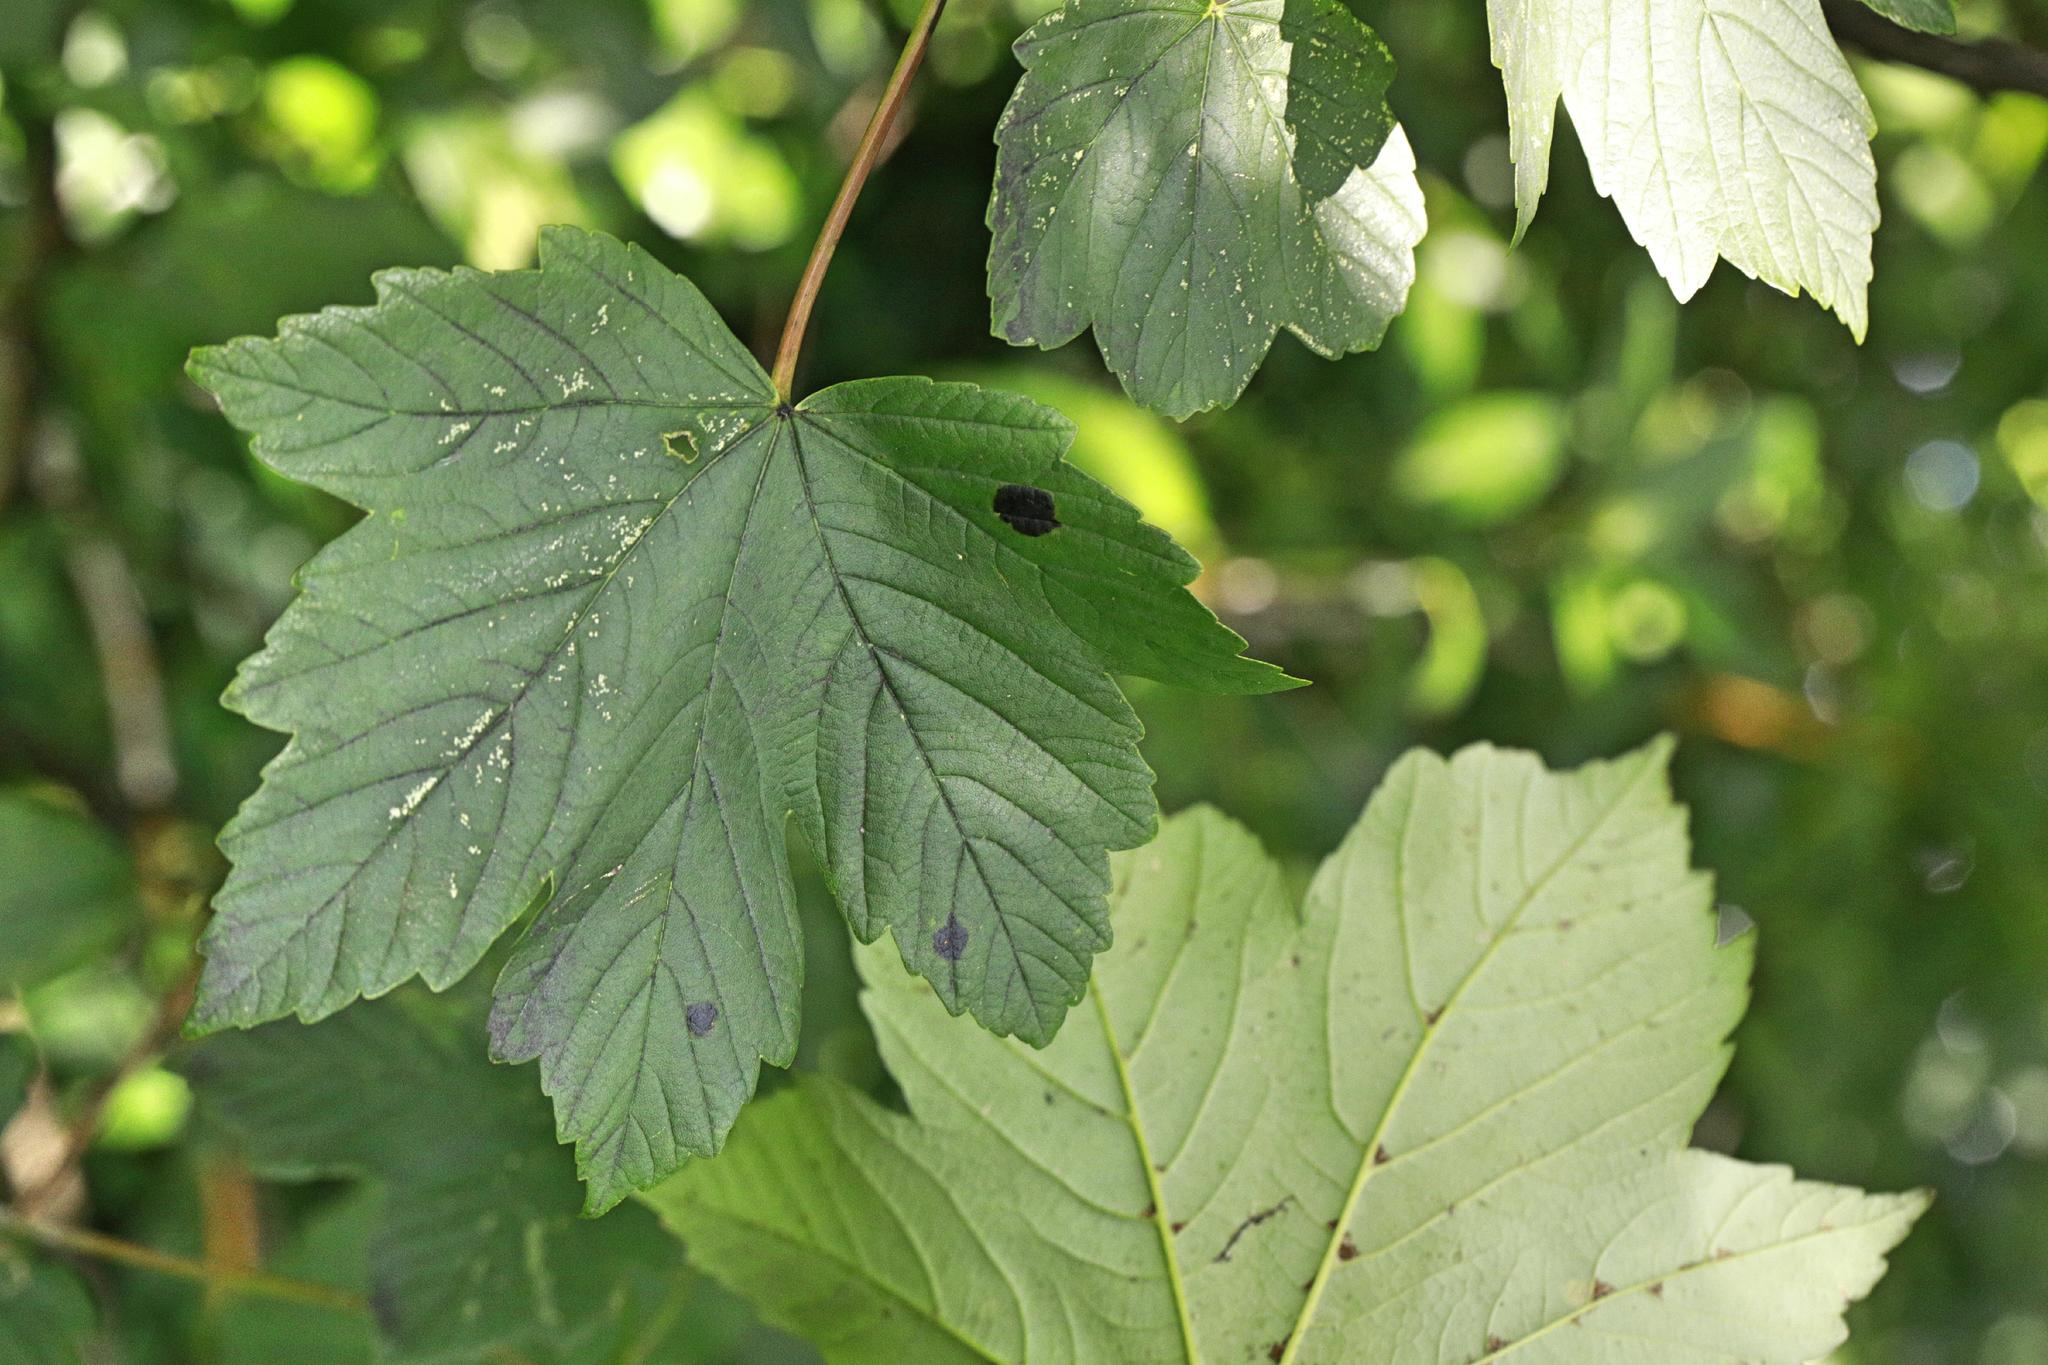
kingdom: Plantae
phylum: Tracheophyta
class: Magnoliopsida
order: Sapindales
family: Sapindaceae
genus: Acer
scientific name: Acer pseudoplatanus
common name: Sycamore
